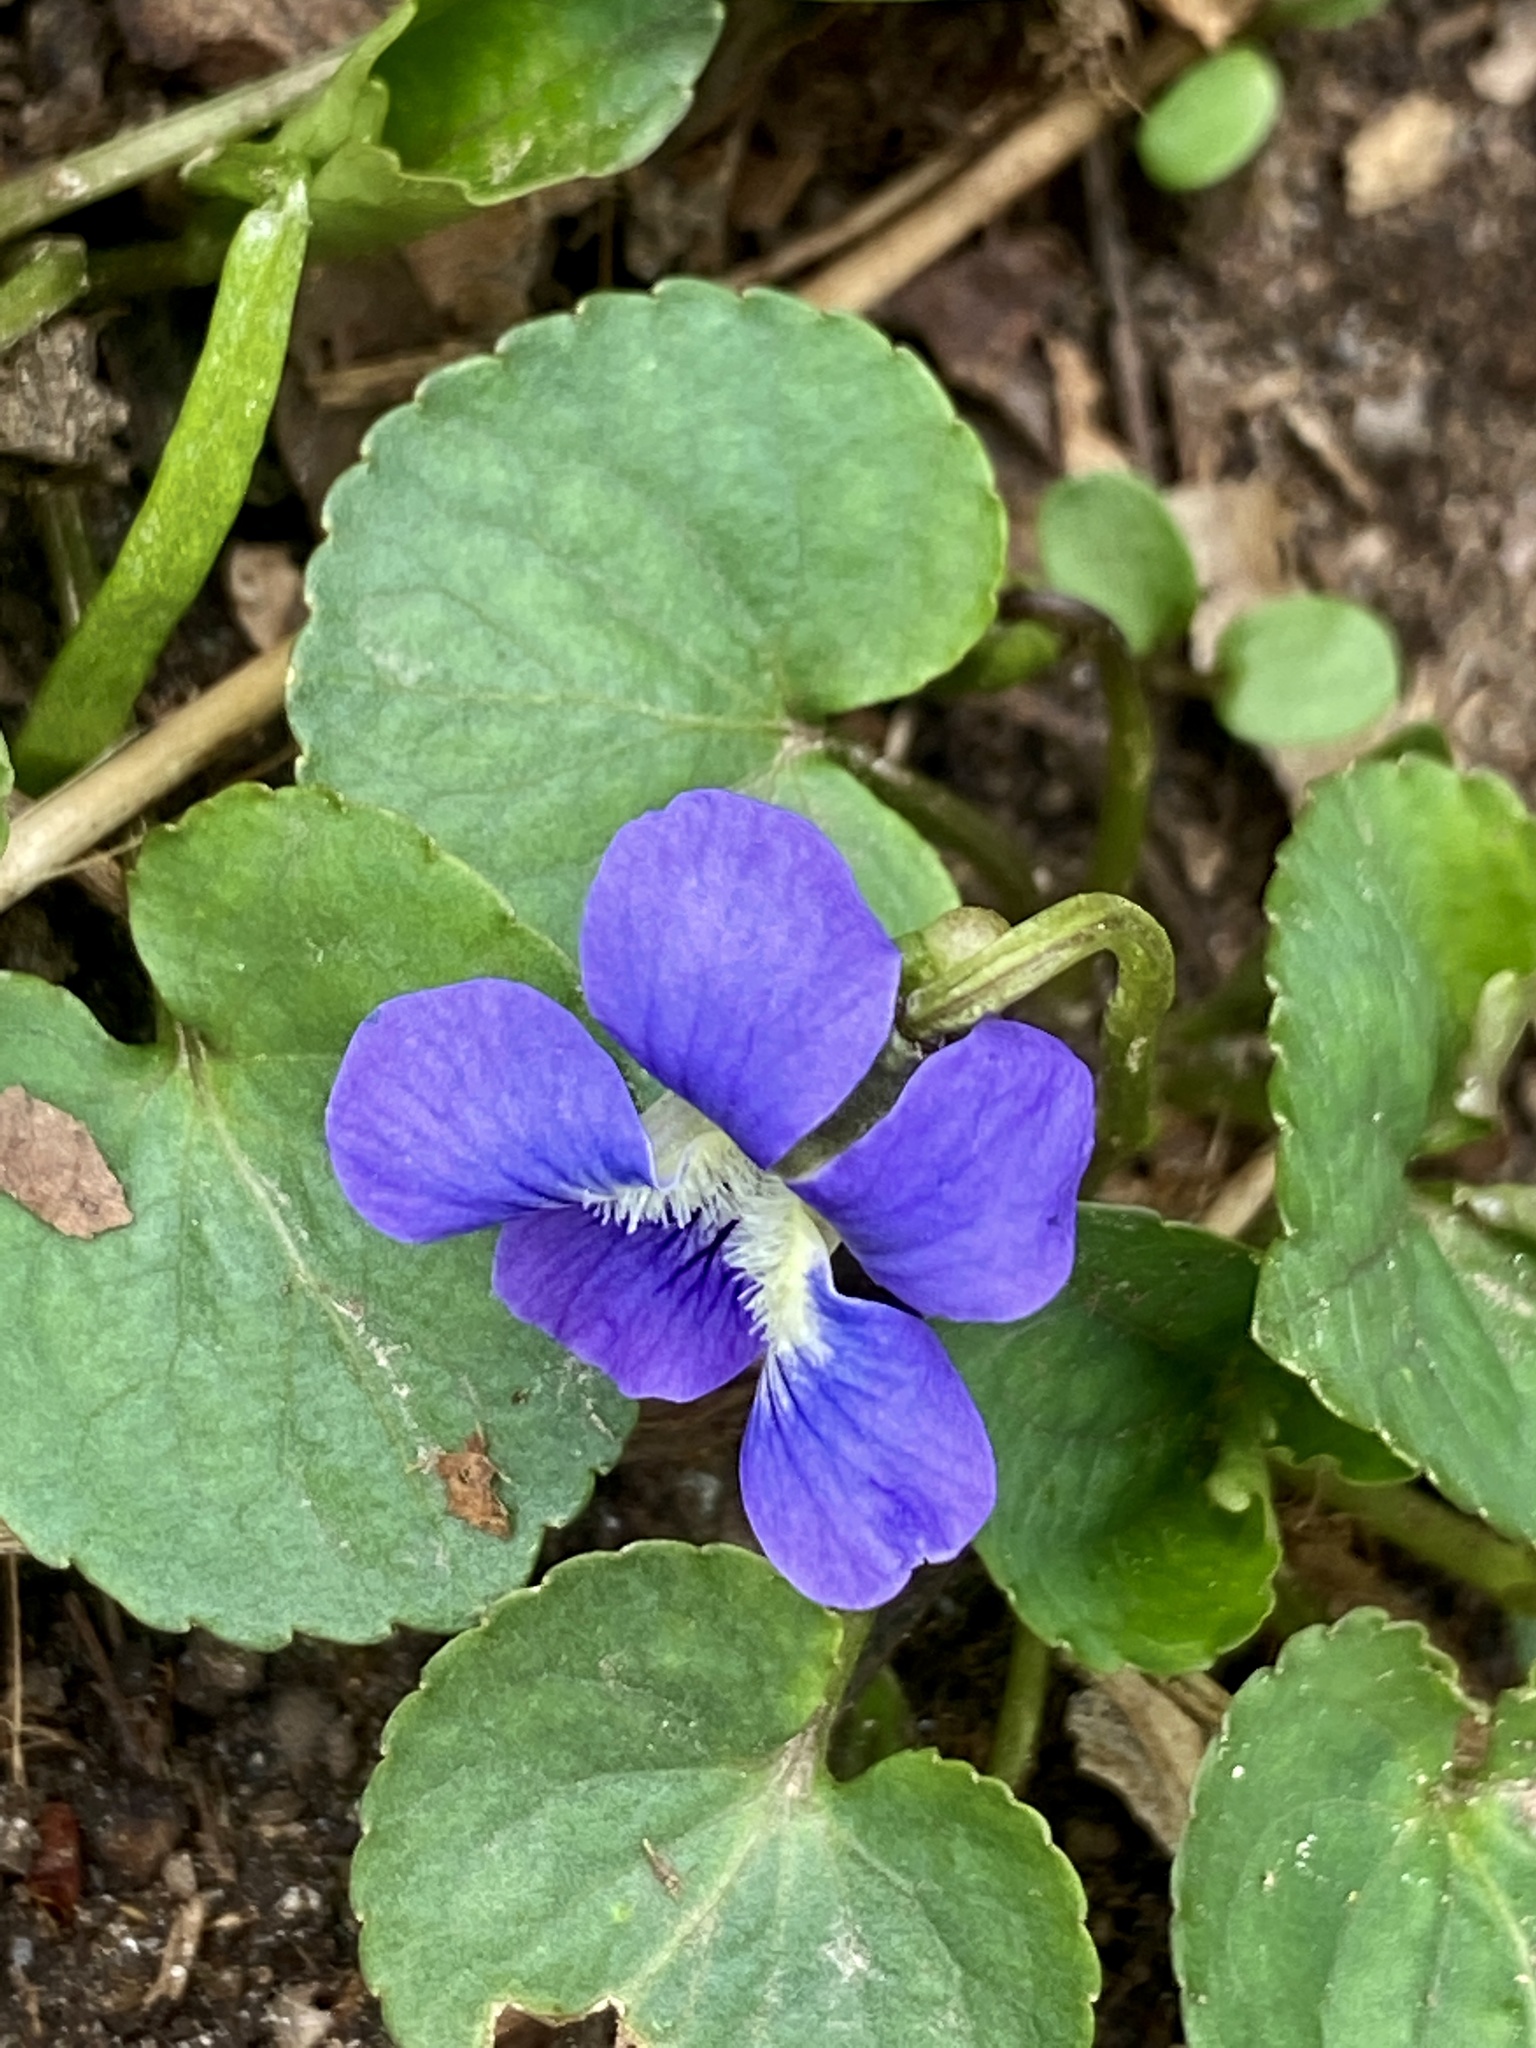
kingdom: Plantae
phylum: Tracheophyta
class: Magnoliopsida
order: Malpighiales
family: Violaceae
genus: Viola
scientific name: Viola sororia
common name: Dooryard violet
